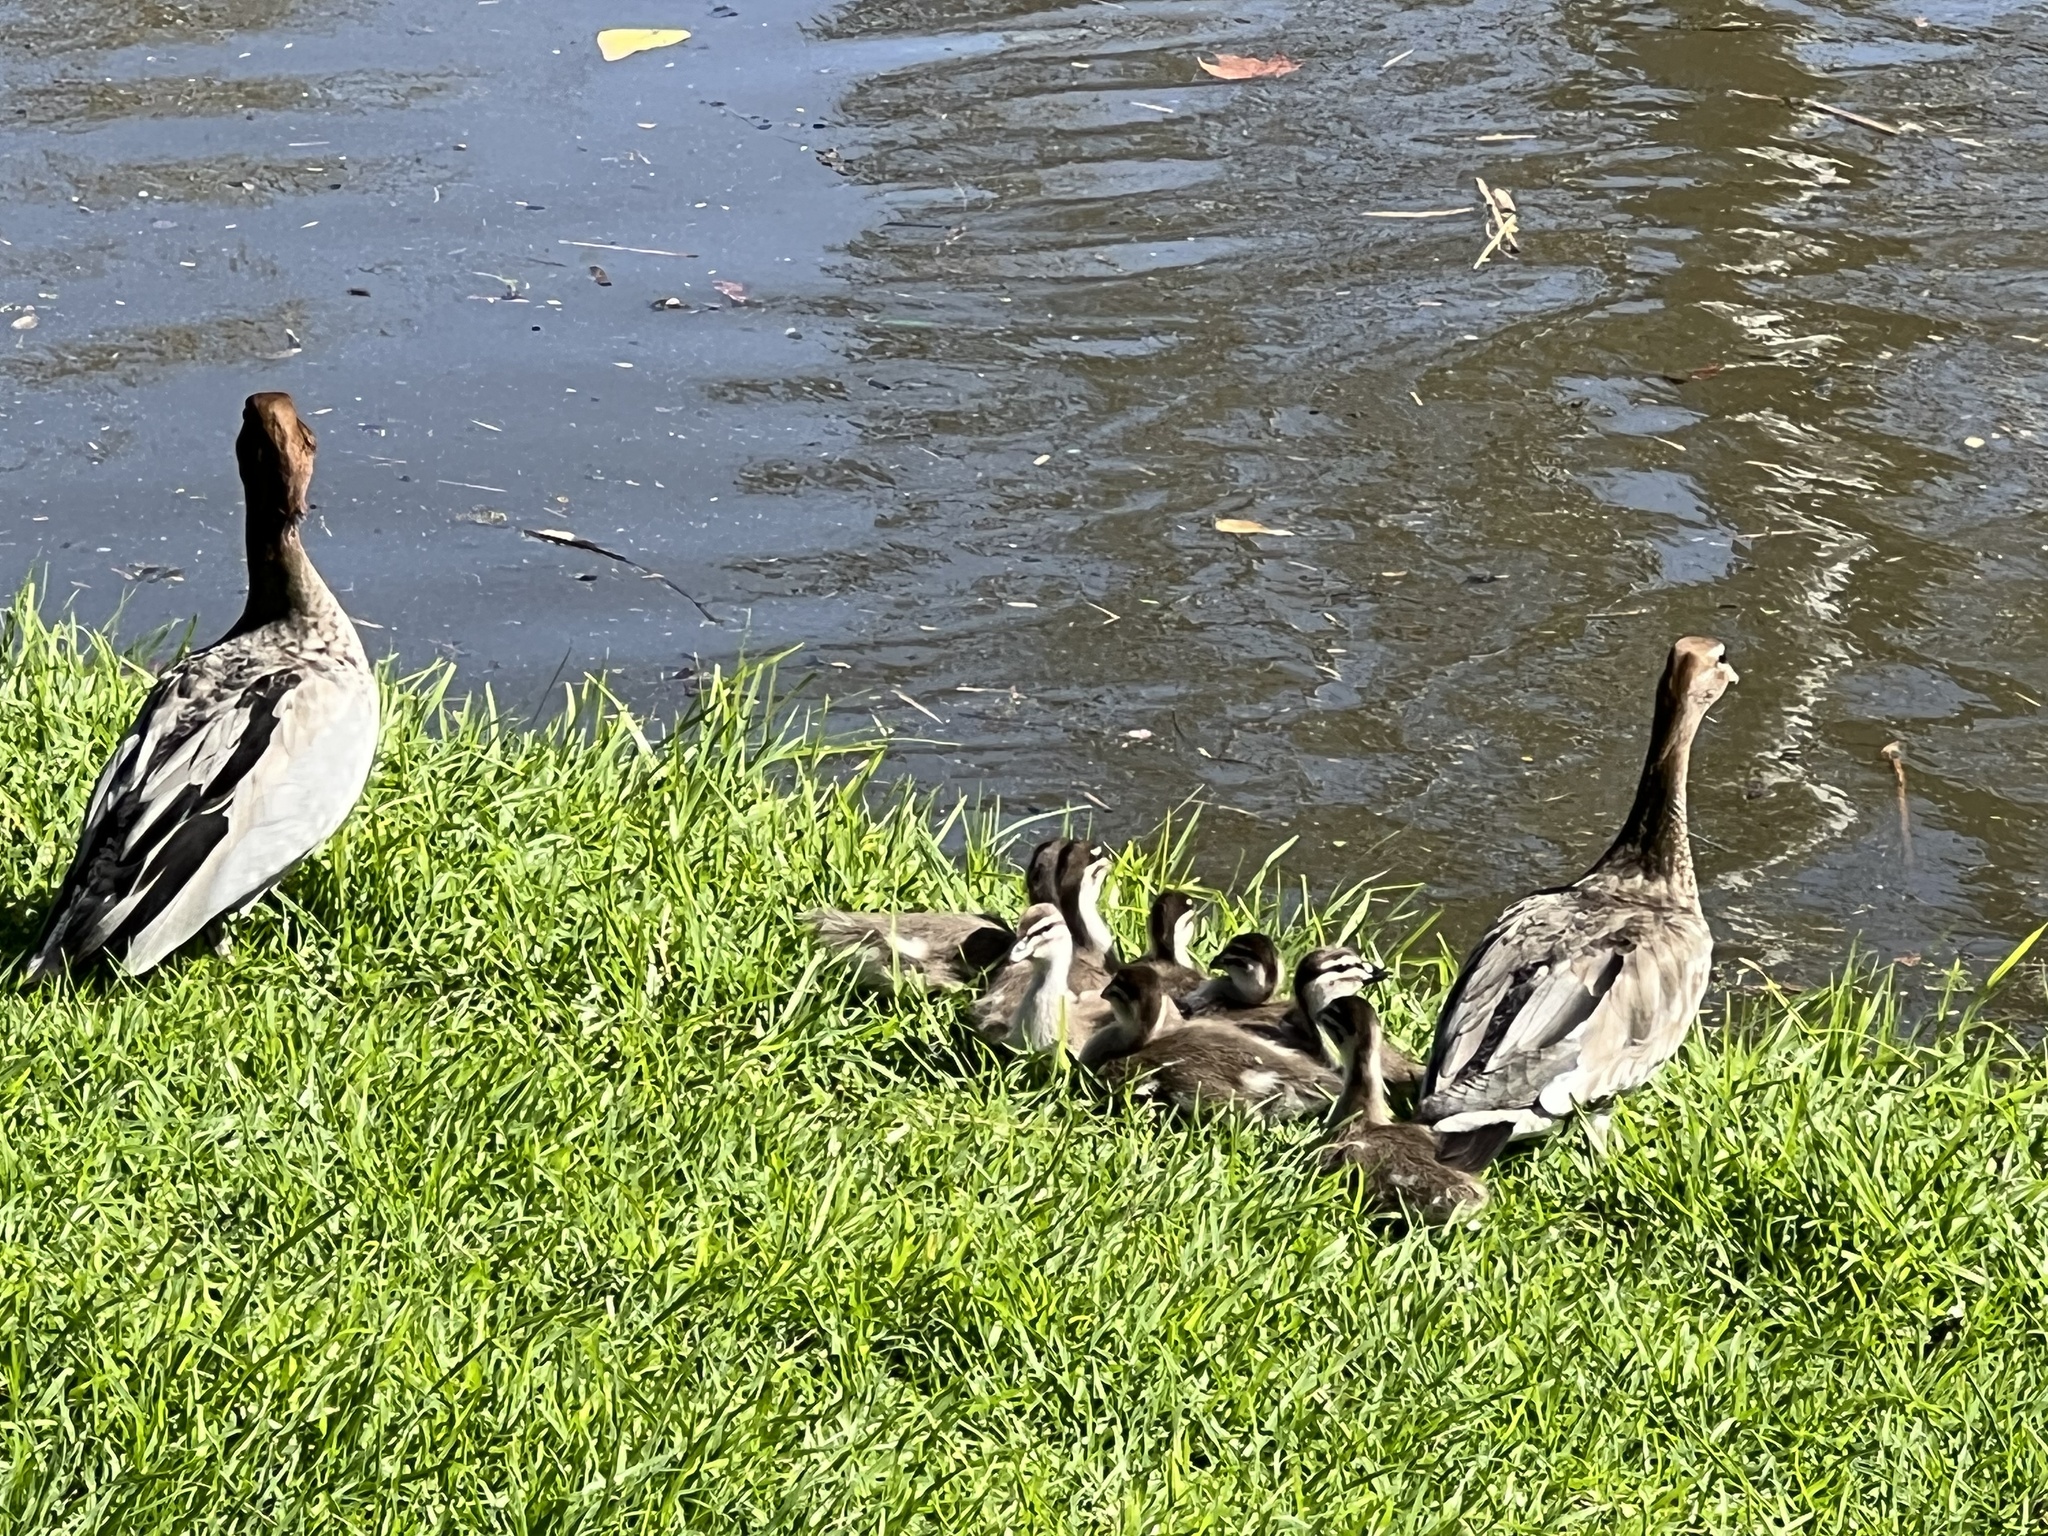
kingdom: Animalia
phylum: Chordata
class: Aves
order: Anseriformes
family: Anatidae
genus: Chenonetta
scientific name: Chenonetta jubata
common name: Maned duck
